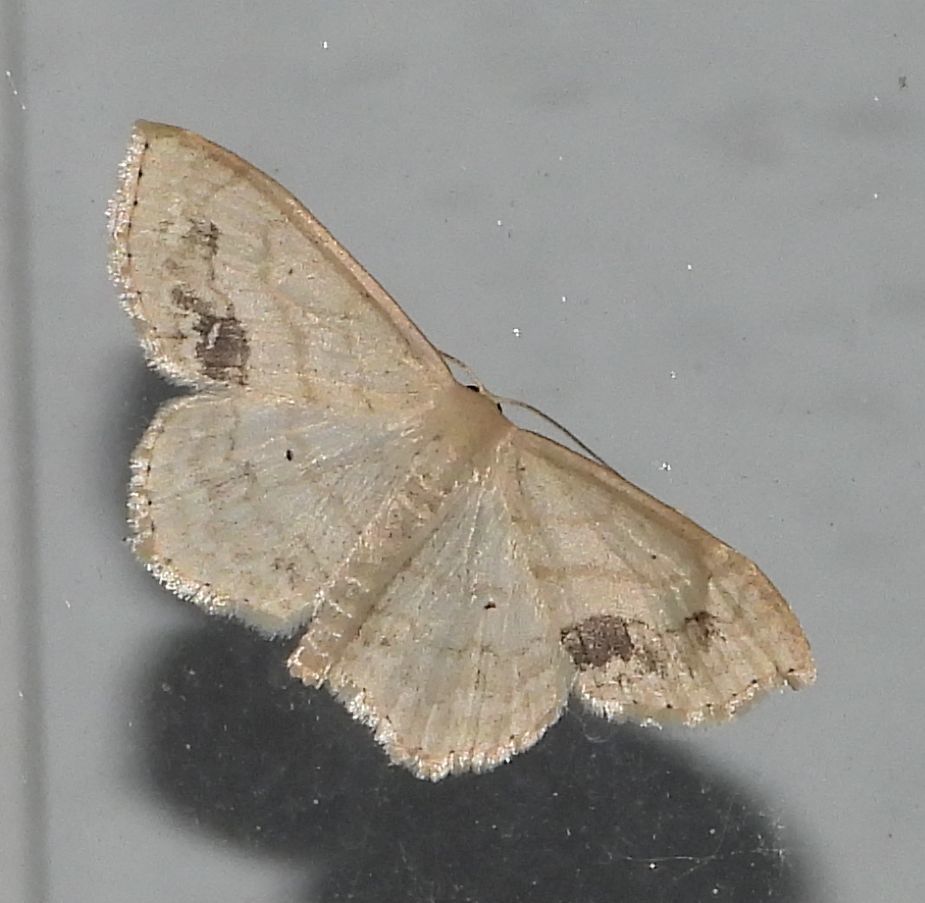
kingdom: Animalia
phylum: Arthropoda
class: Insecta
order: Lepidoptera
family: Geometridae
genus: Scopula
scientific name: Scopula limboundata
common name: Large lace border
